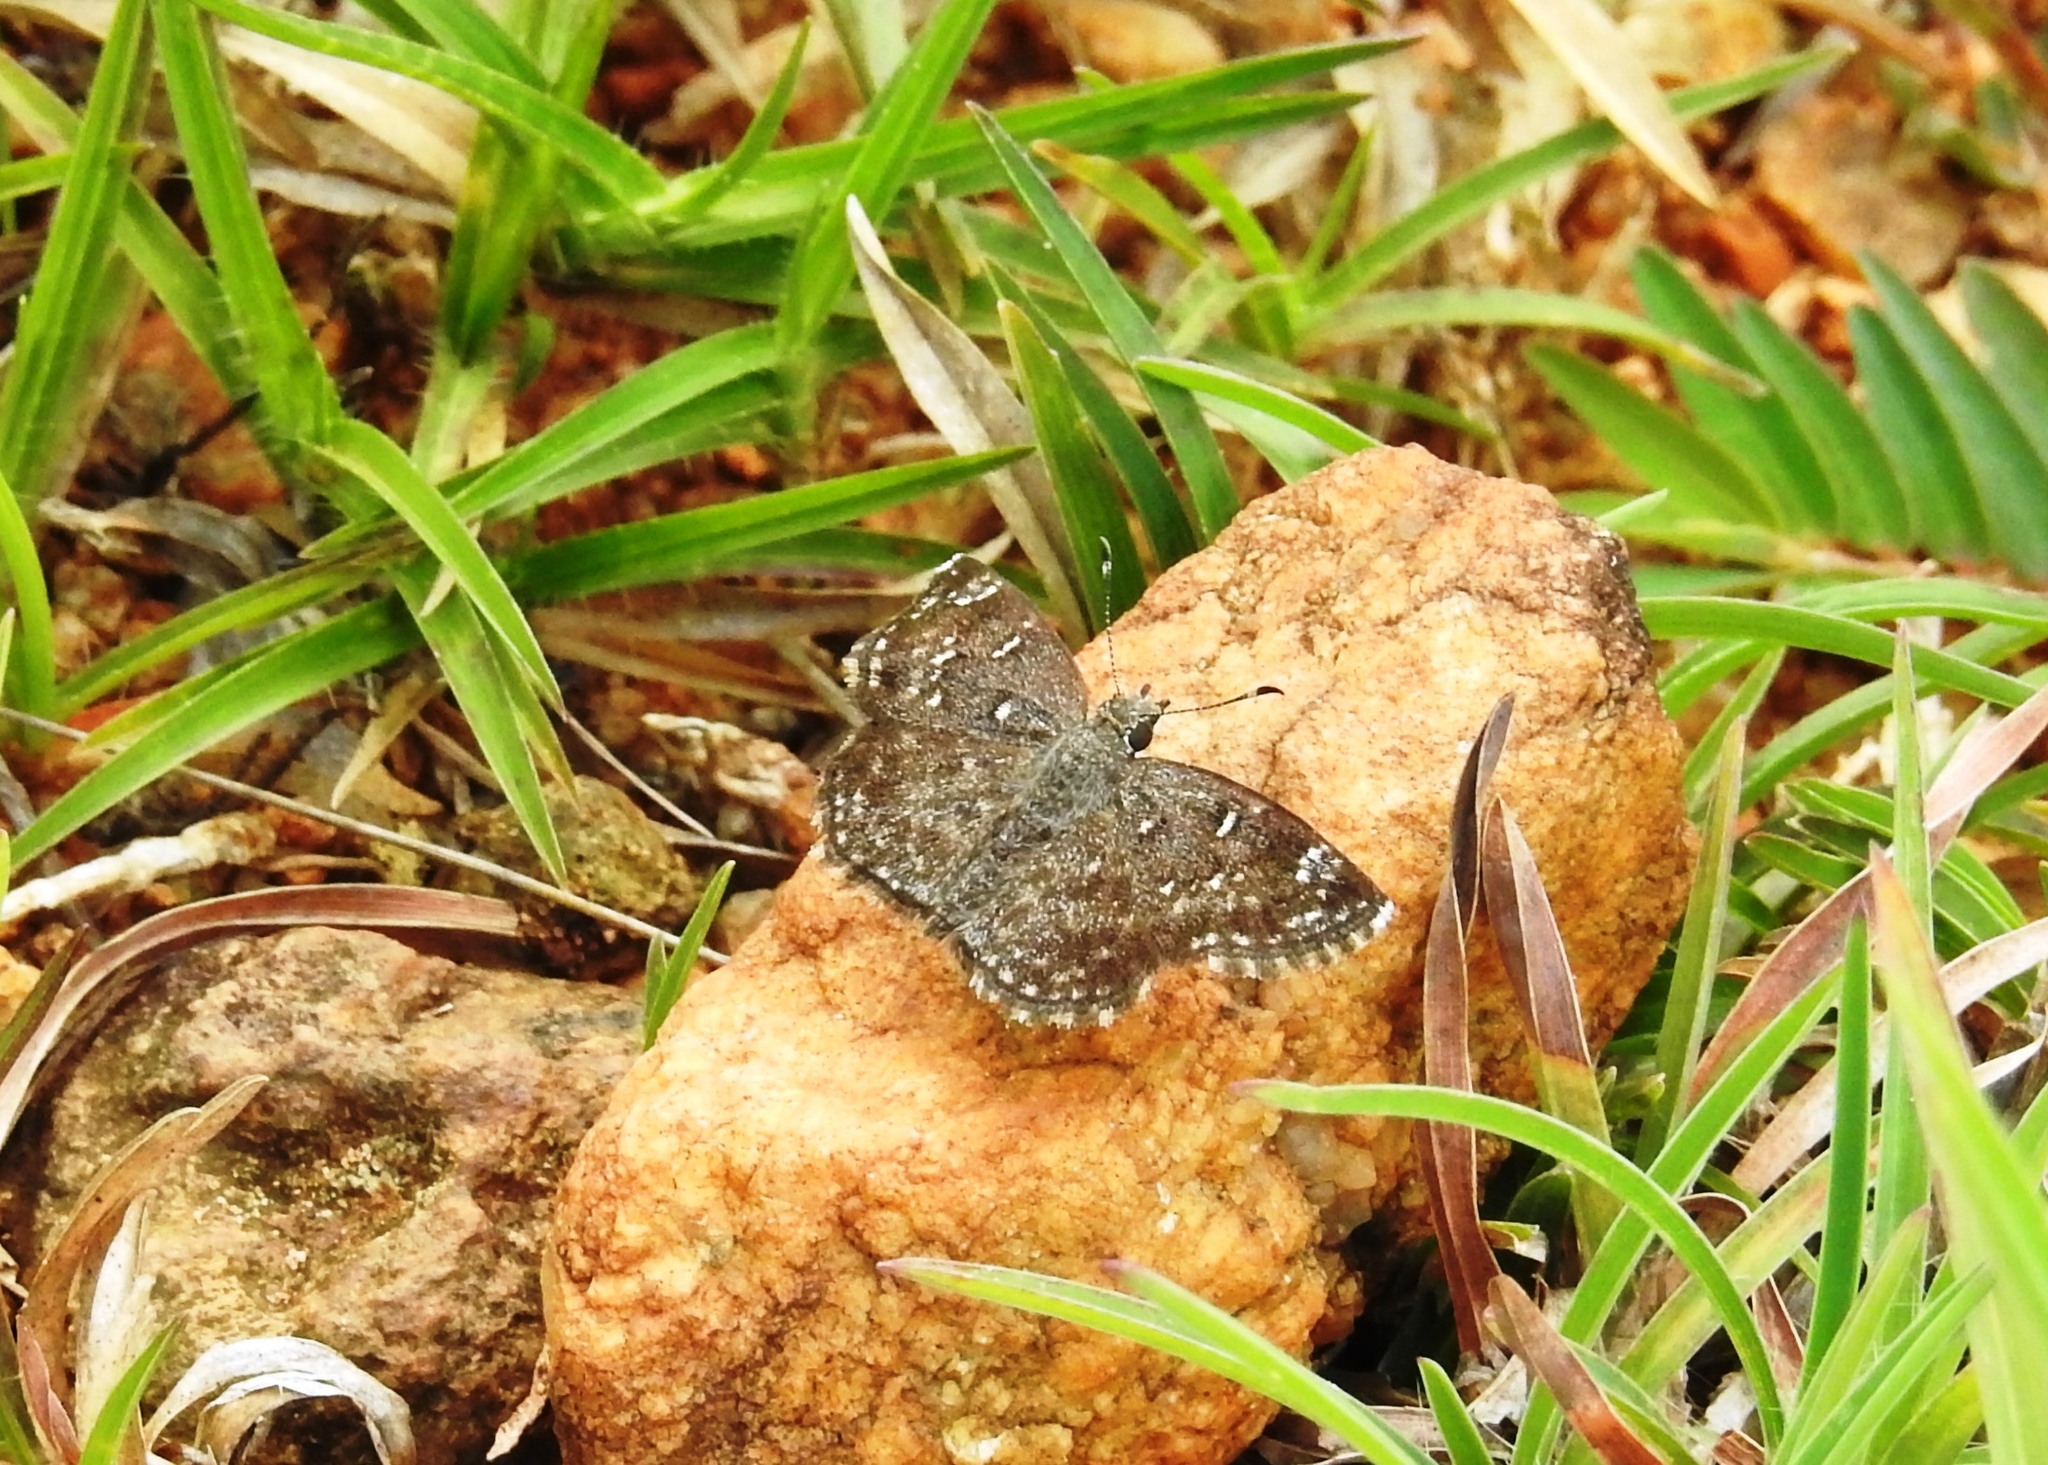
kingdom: Animalia
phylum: Arthropoda
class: Insecta
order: Lepidoptera
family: Hesperiidae
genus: Sarangesa
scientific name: Sarangesa purendra
